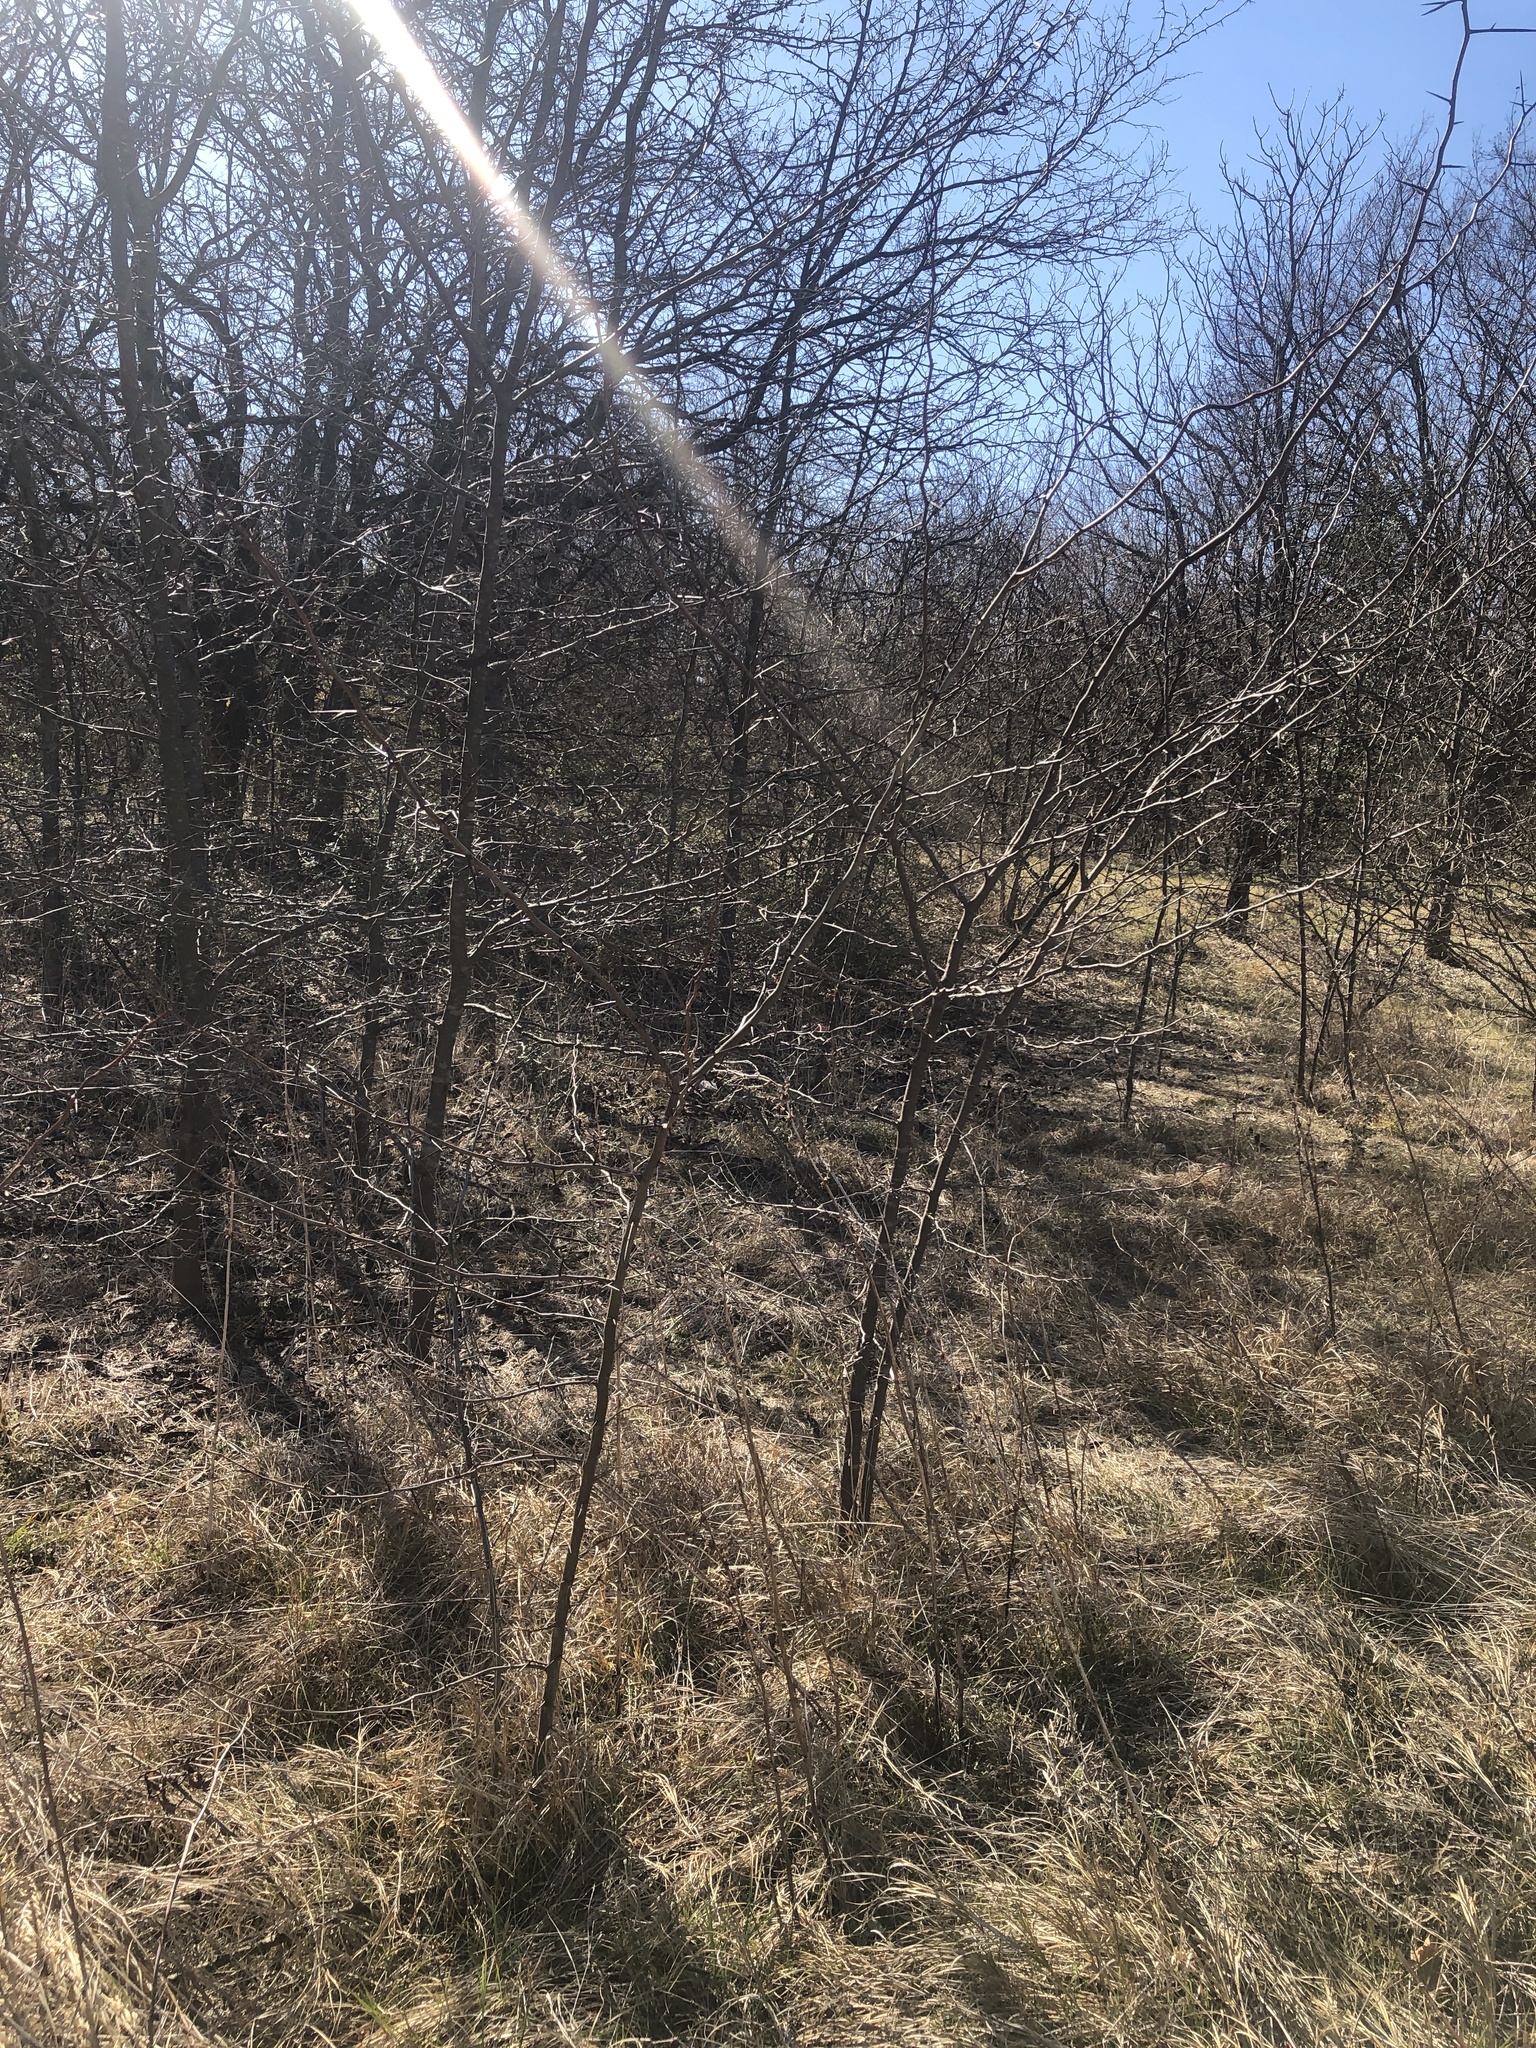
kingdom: Plantae
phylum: Tracheophyta
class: Magnoliopsida
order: Fabales
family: Fabaceae
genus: Gleditsia
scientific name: Gleditsia triacanthos
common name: Common honeylocust
